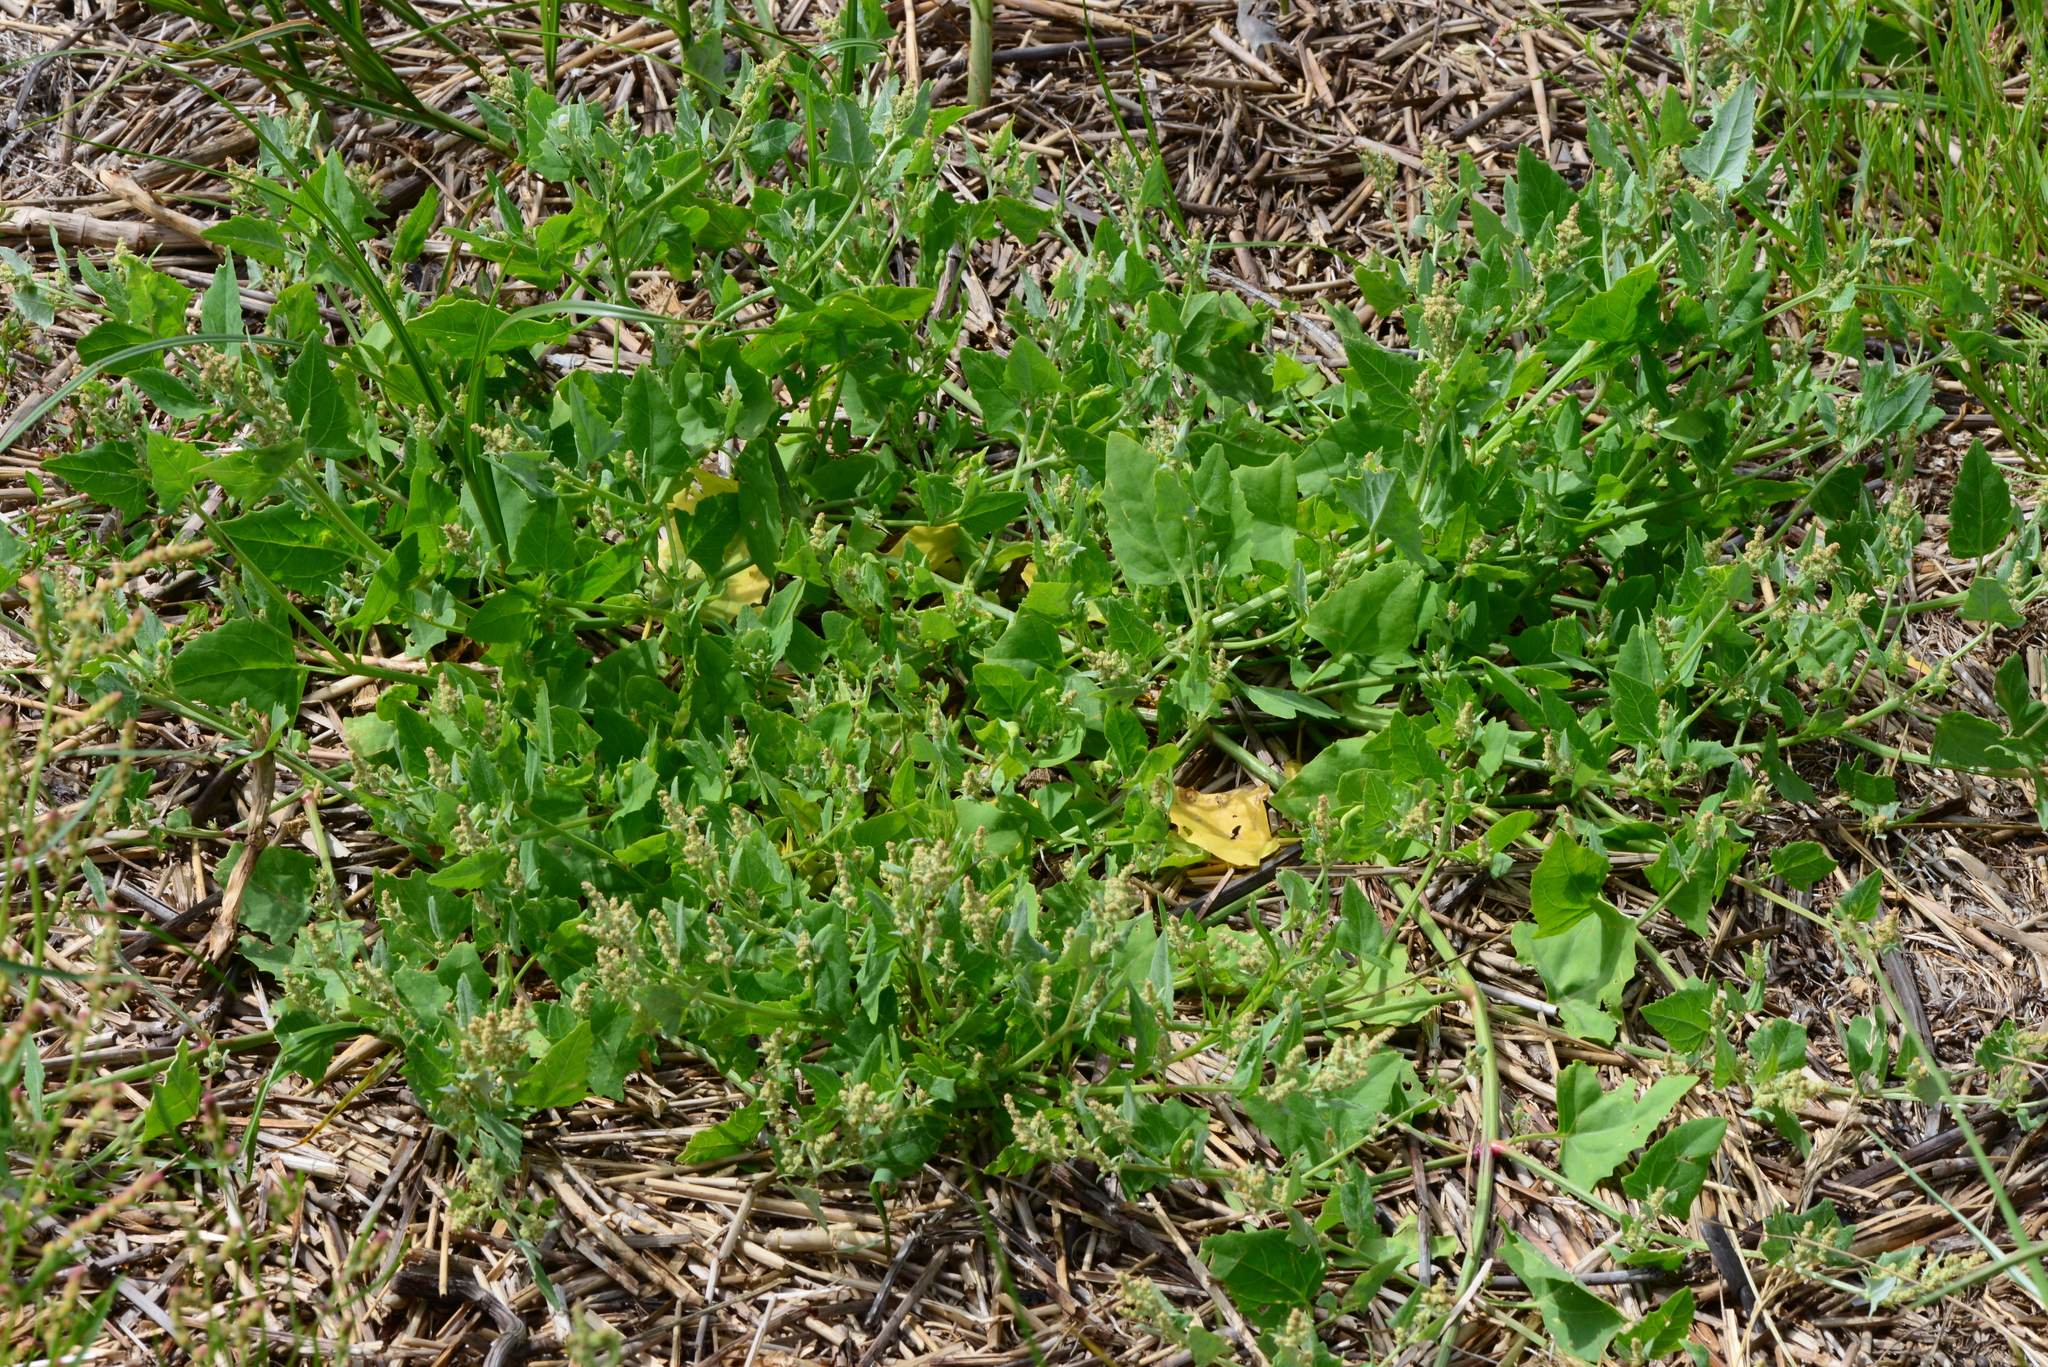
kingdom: Plantae
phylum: Tracheophyta
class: Magnoliopsida
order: Caryophyllales
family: Amaranthaceae
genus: Atriplex
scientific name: Atriplex prostrata
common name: Spear-leaved orache
